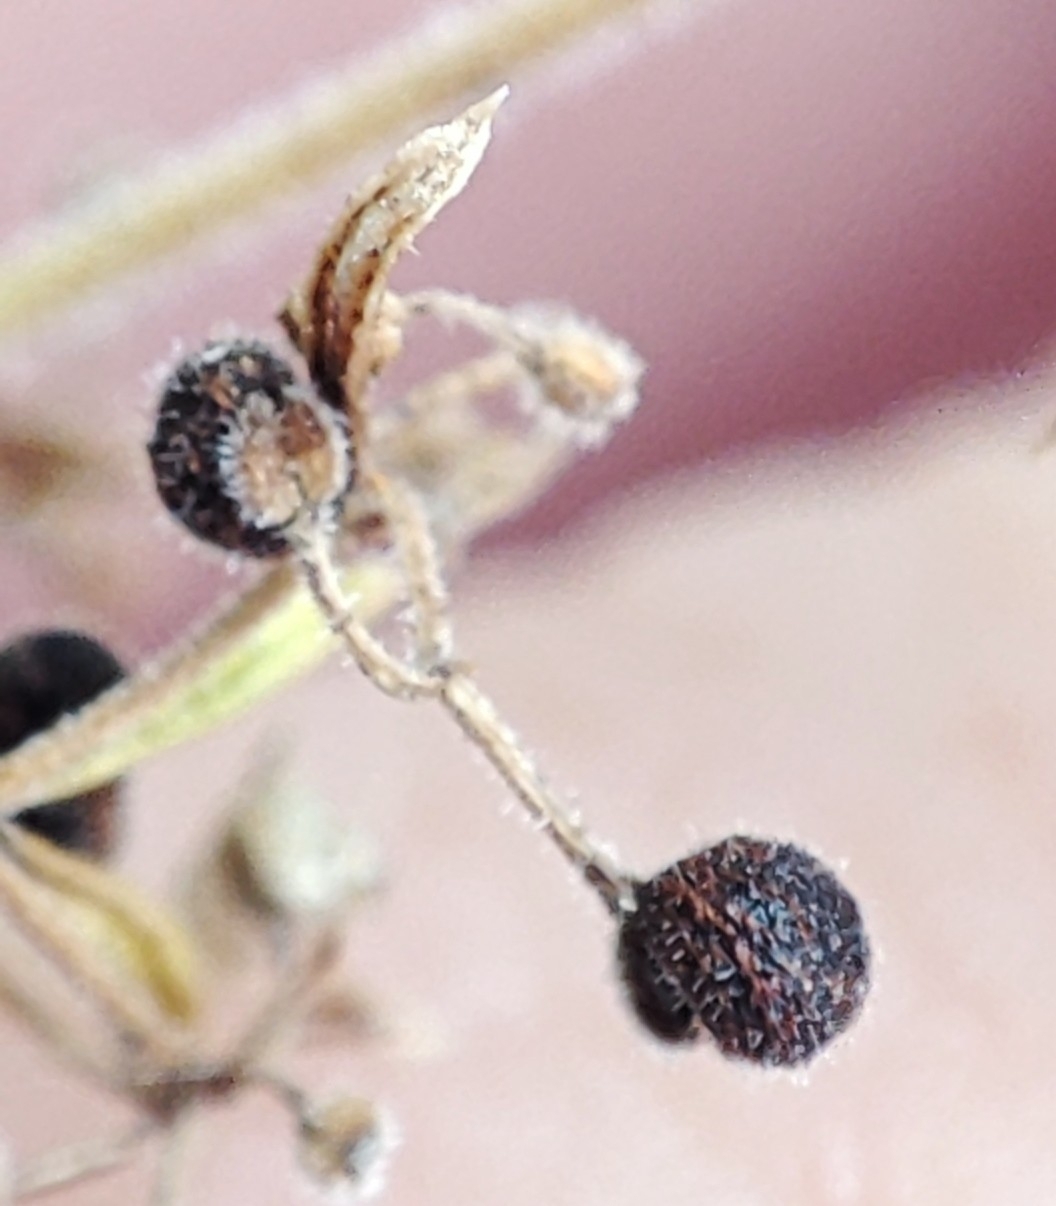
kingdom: Plantae
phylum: Tracheophyta
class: Magnoliopsida
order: Gentianales
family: Rubiaceae
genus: Galium
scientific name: Galium verum
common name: Lady's bedstraw
